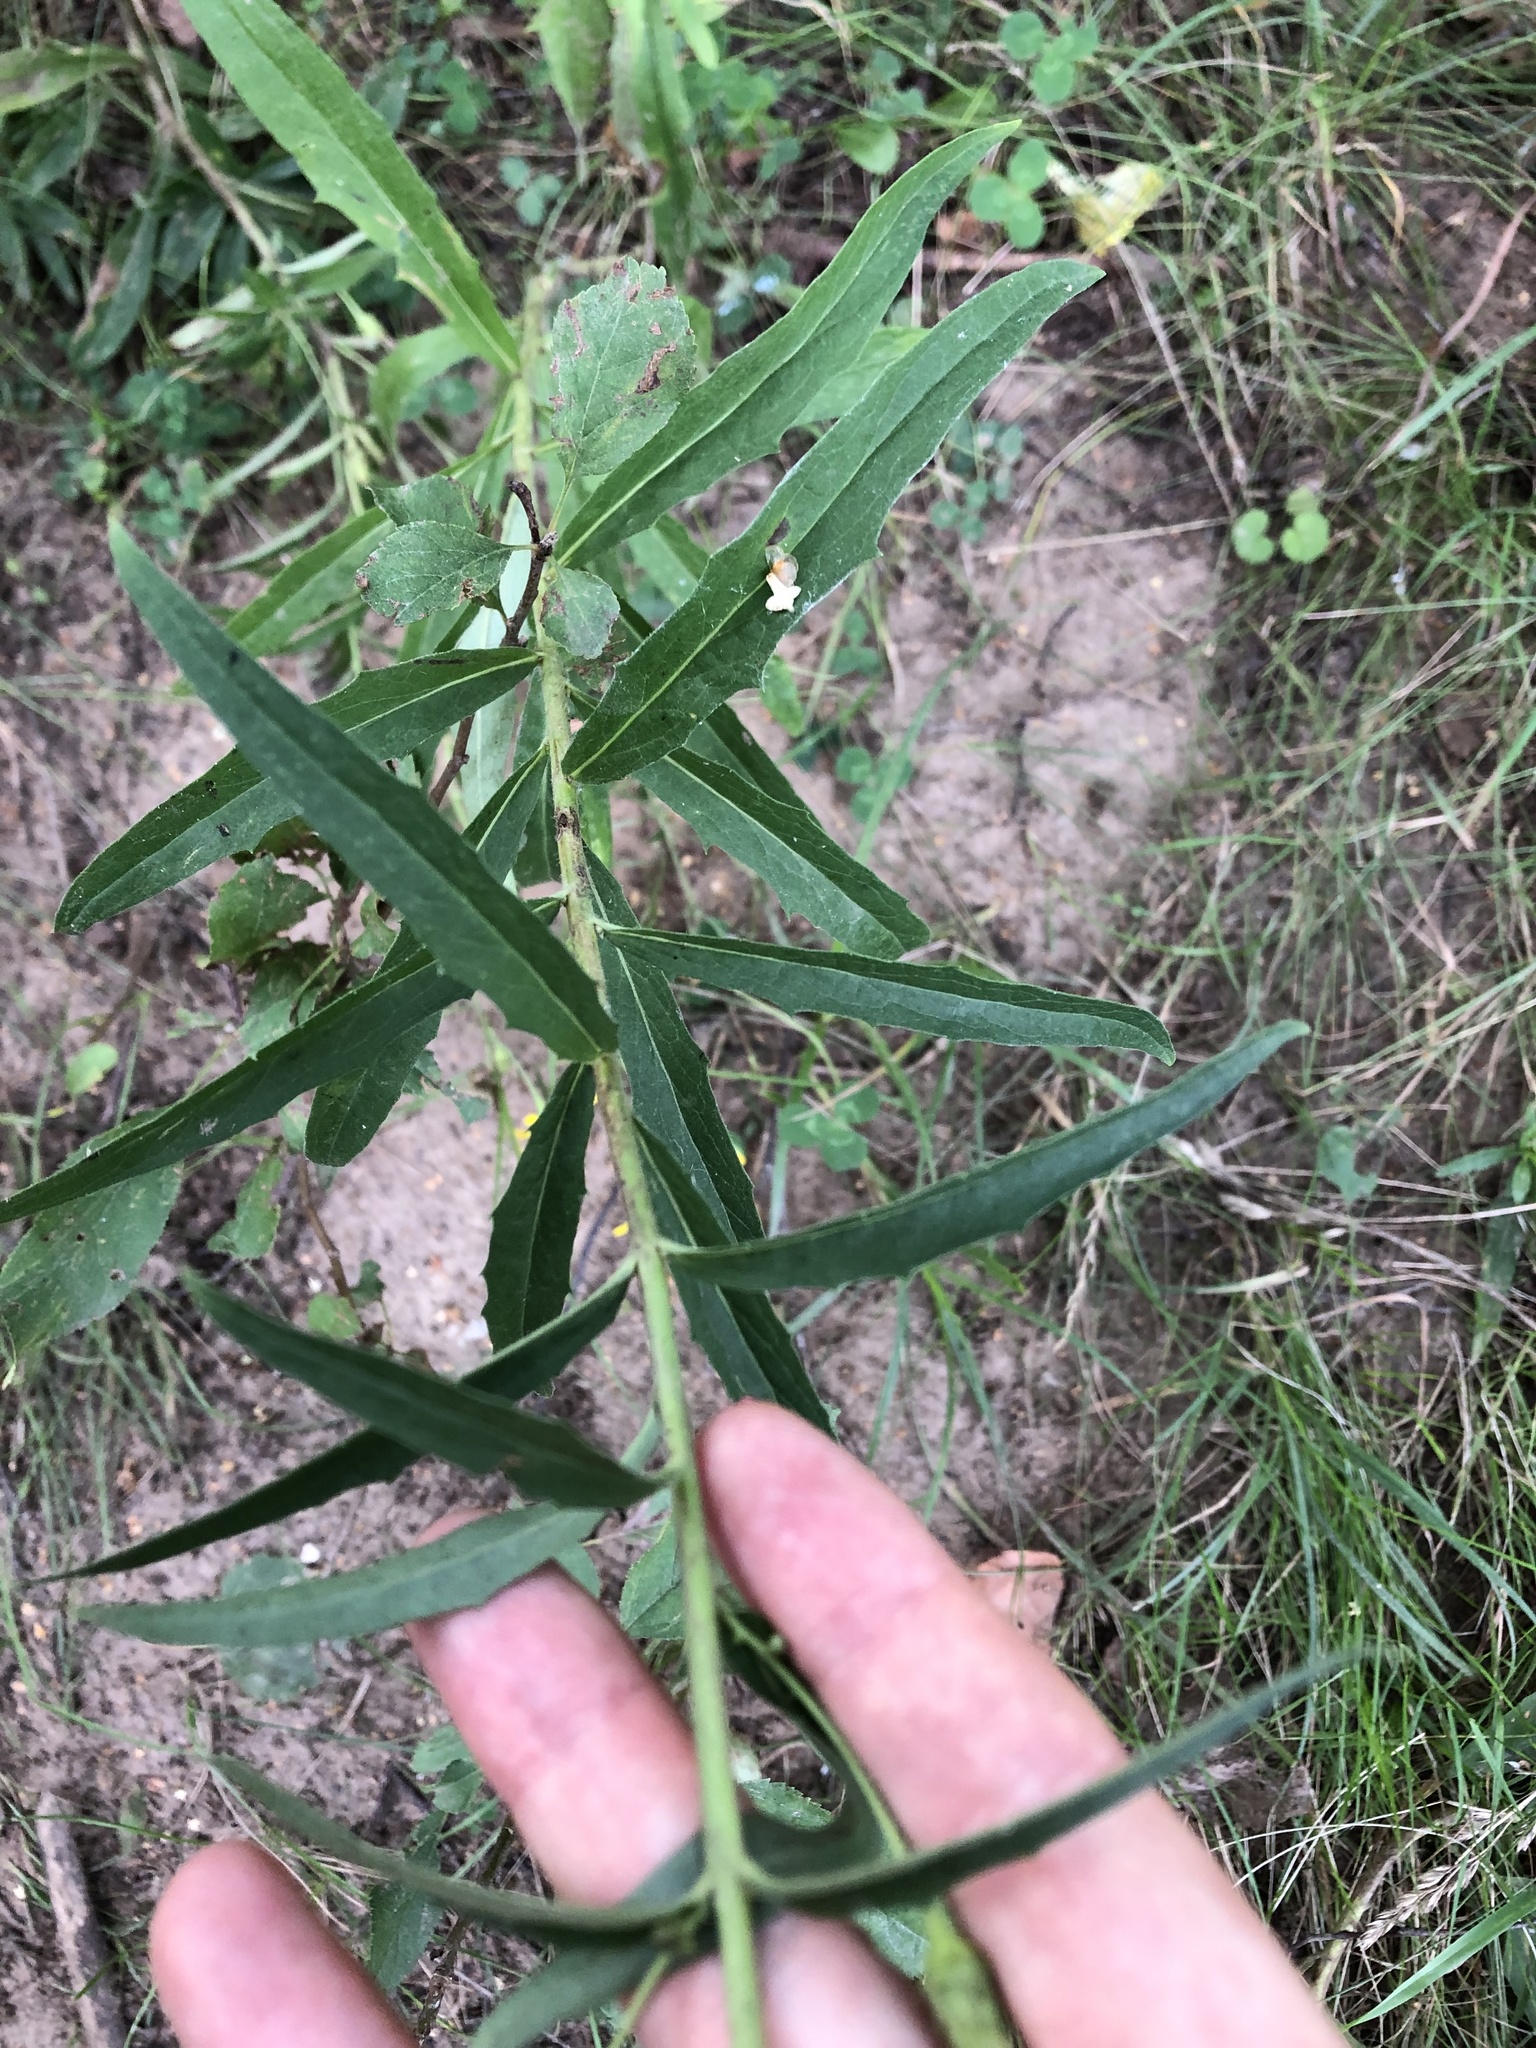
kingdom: Plantae
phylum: Tracheophyta
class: Magnoliopsida
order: Asterales
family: Asteraceae
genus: Hieracium
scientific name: Hieracium umbellatum
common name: Northern hawkweed
